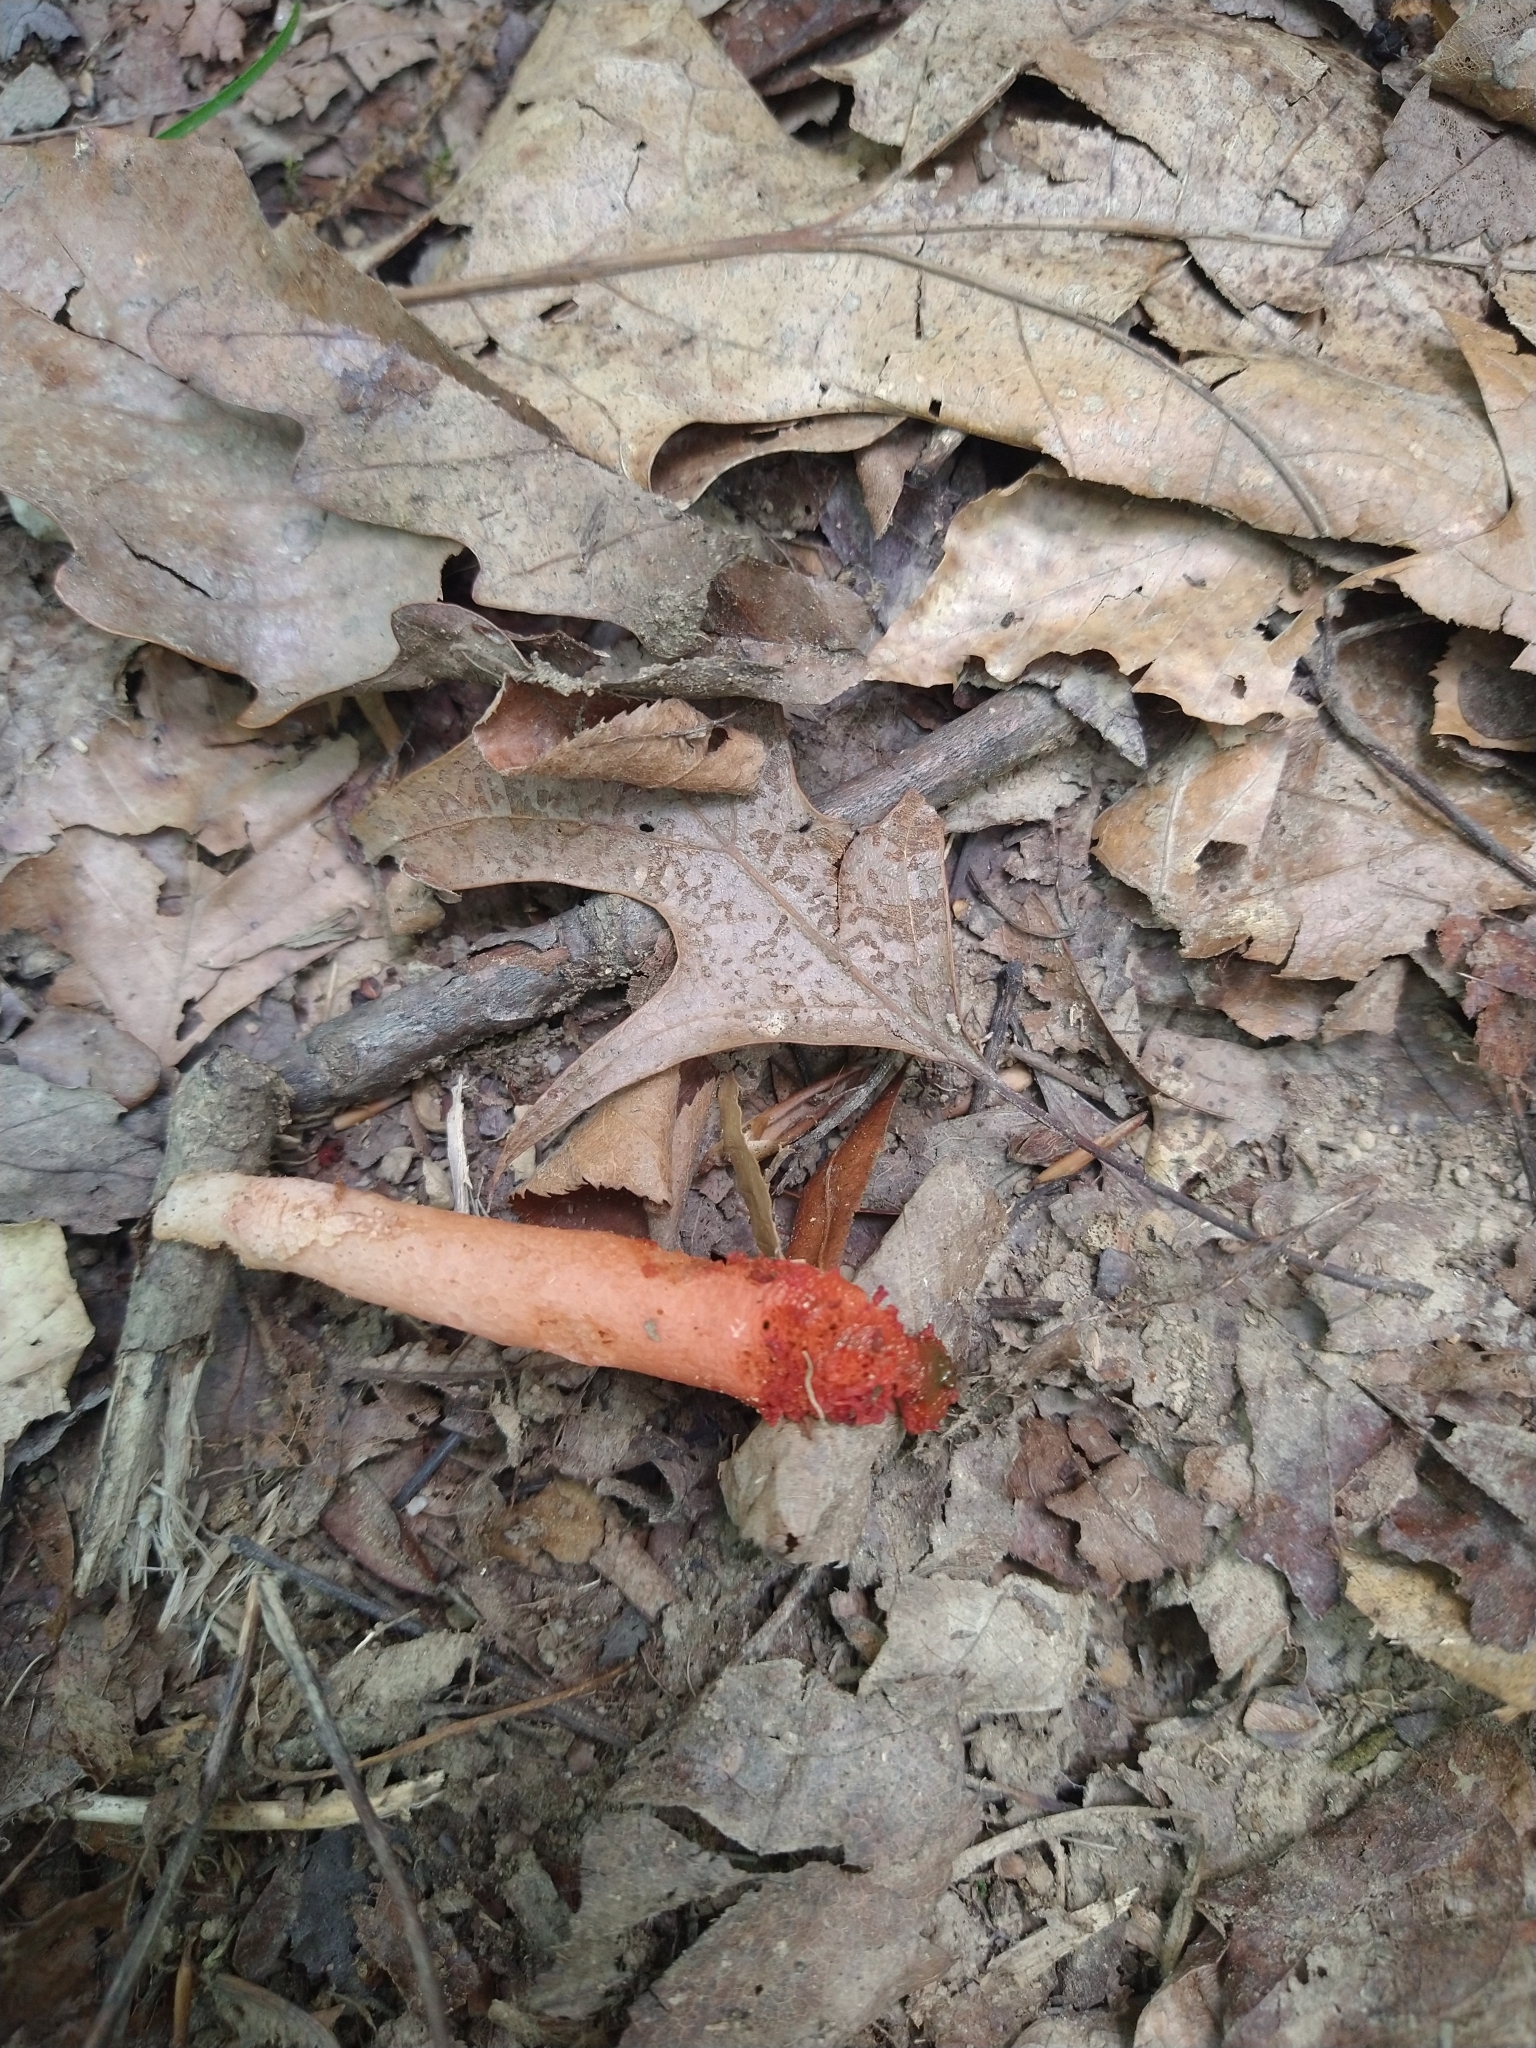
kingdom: Fungi
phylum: Basidiomycota
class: Agaricomycetes
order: Phallales
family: Phallaceae
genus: Mutinus
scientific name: Mutinus elegans
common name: Devil's dipstick
